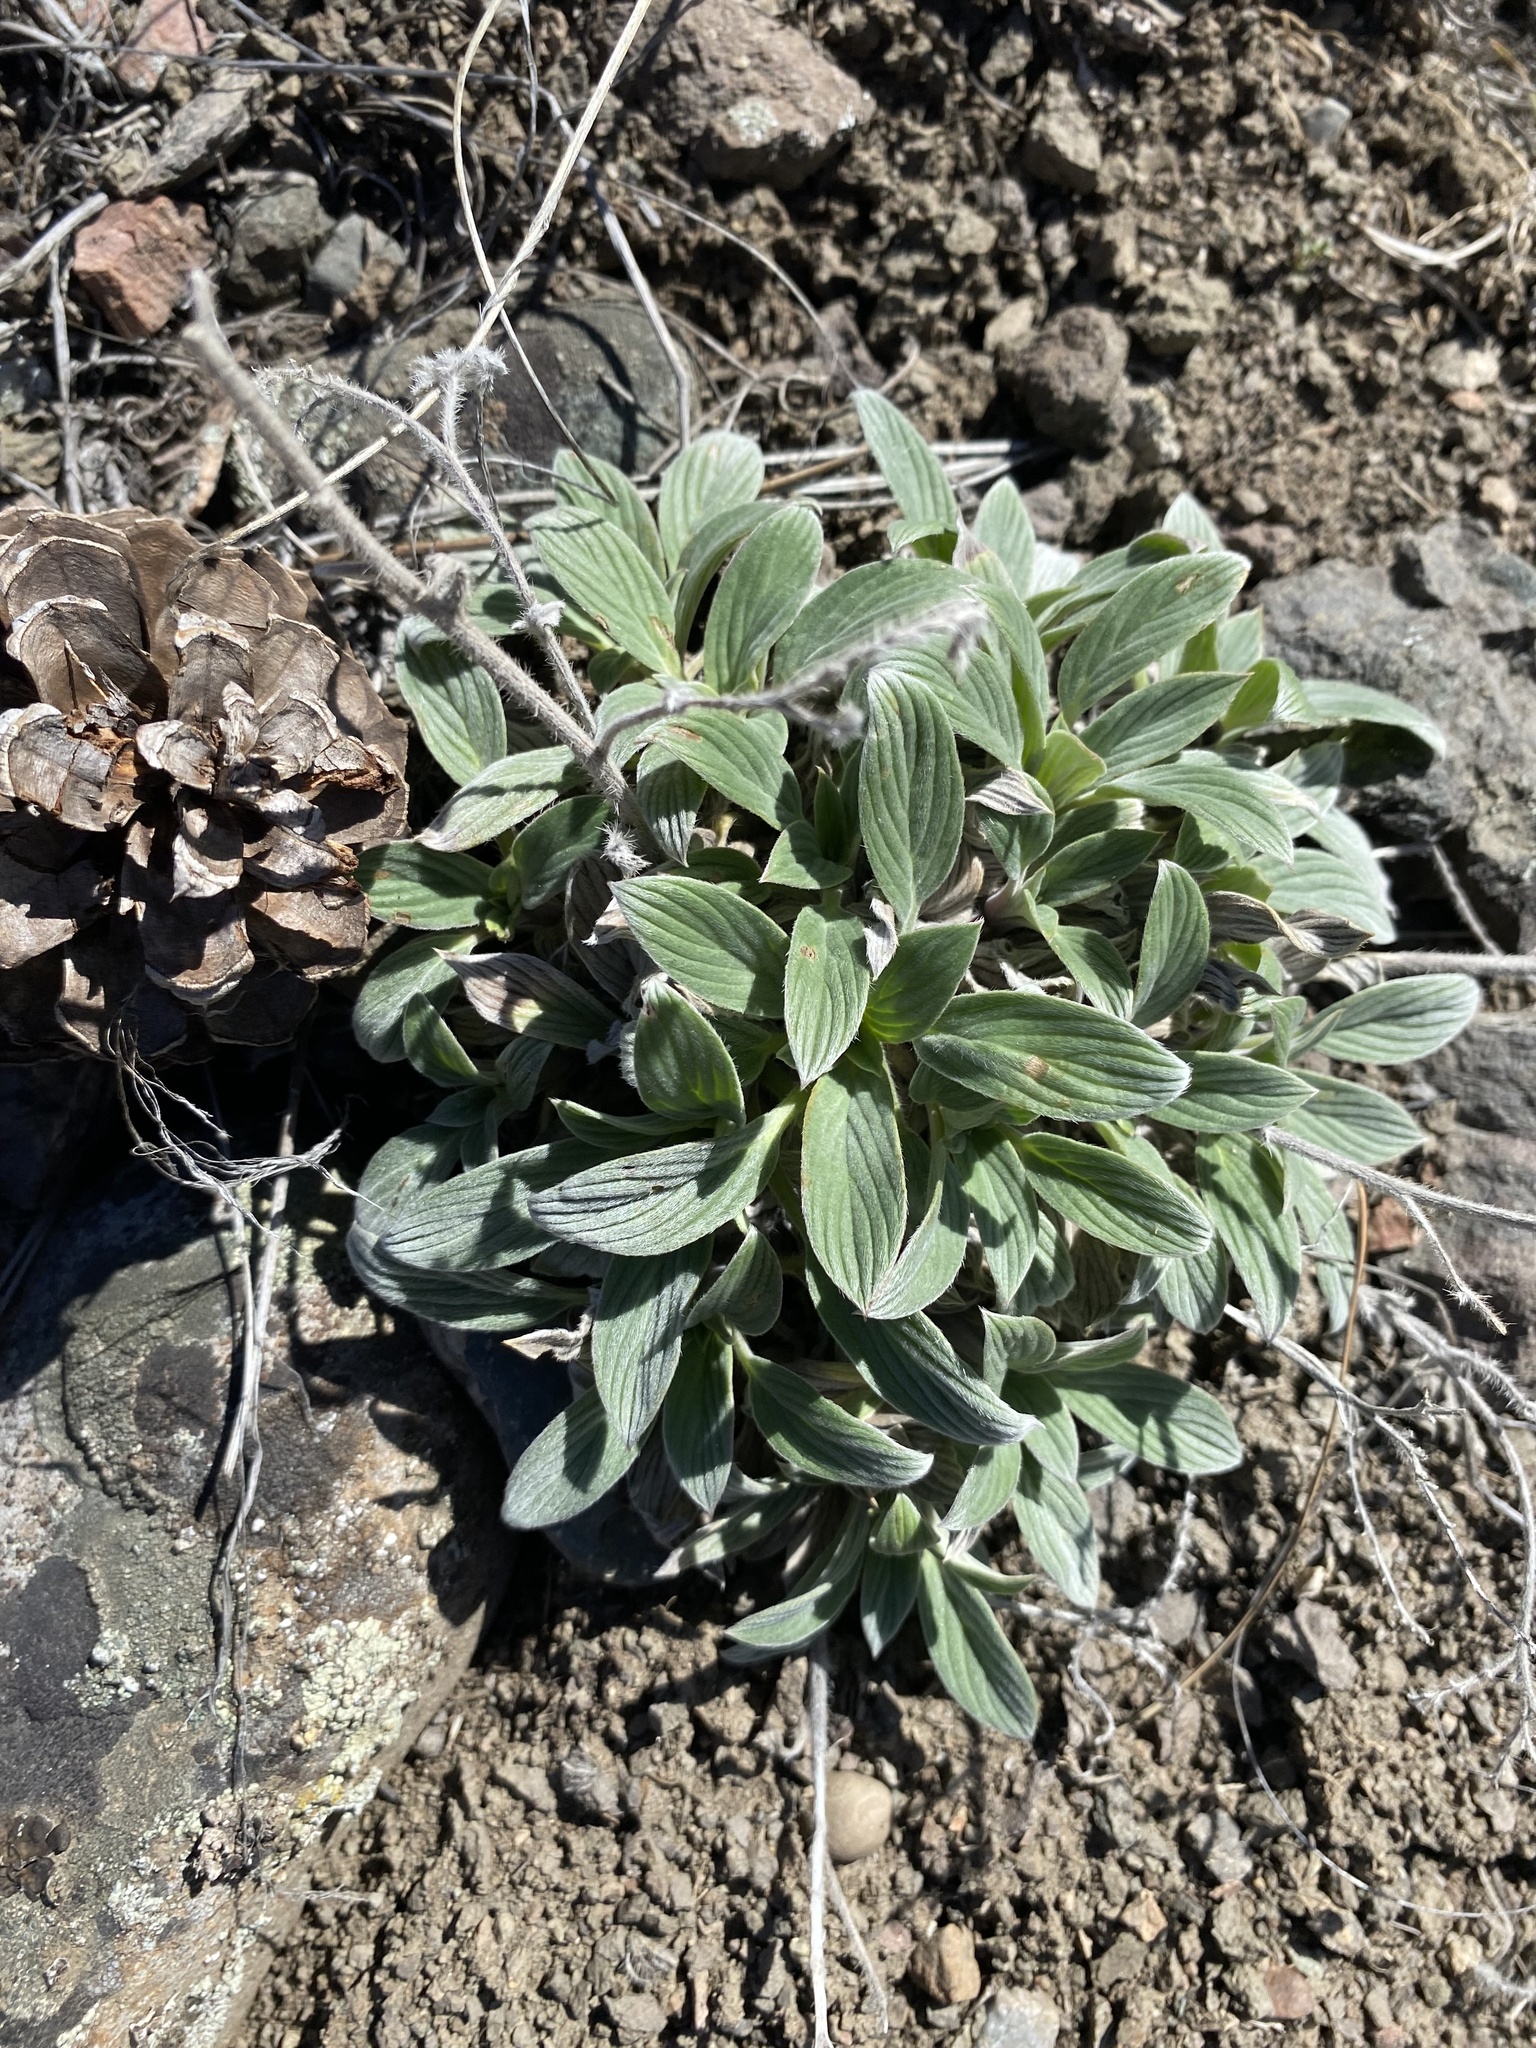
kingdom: Plantae
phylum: Tracheophyta
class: Magnoliopsida
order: Boraginales
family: Hydrophyllaceae
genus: Phacelia
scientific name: Phacelia hastata
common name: Silver-leaved phacelia
